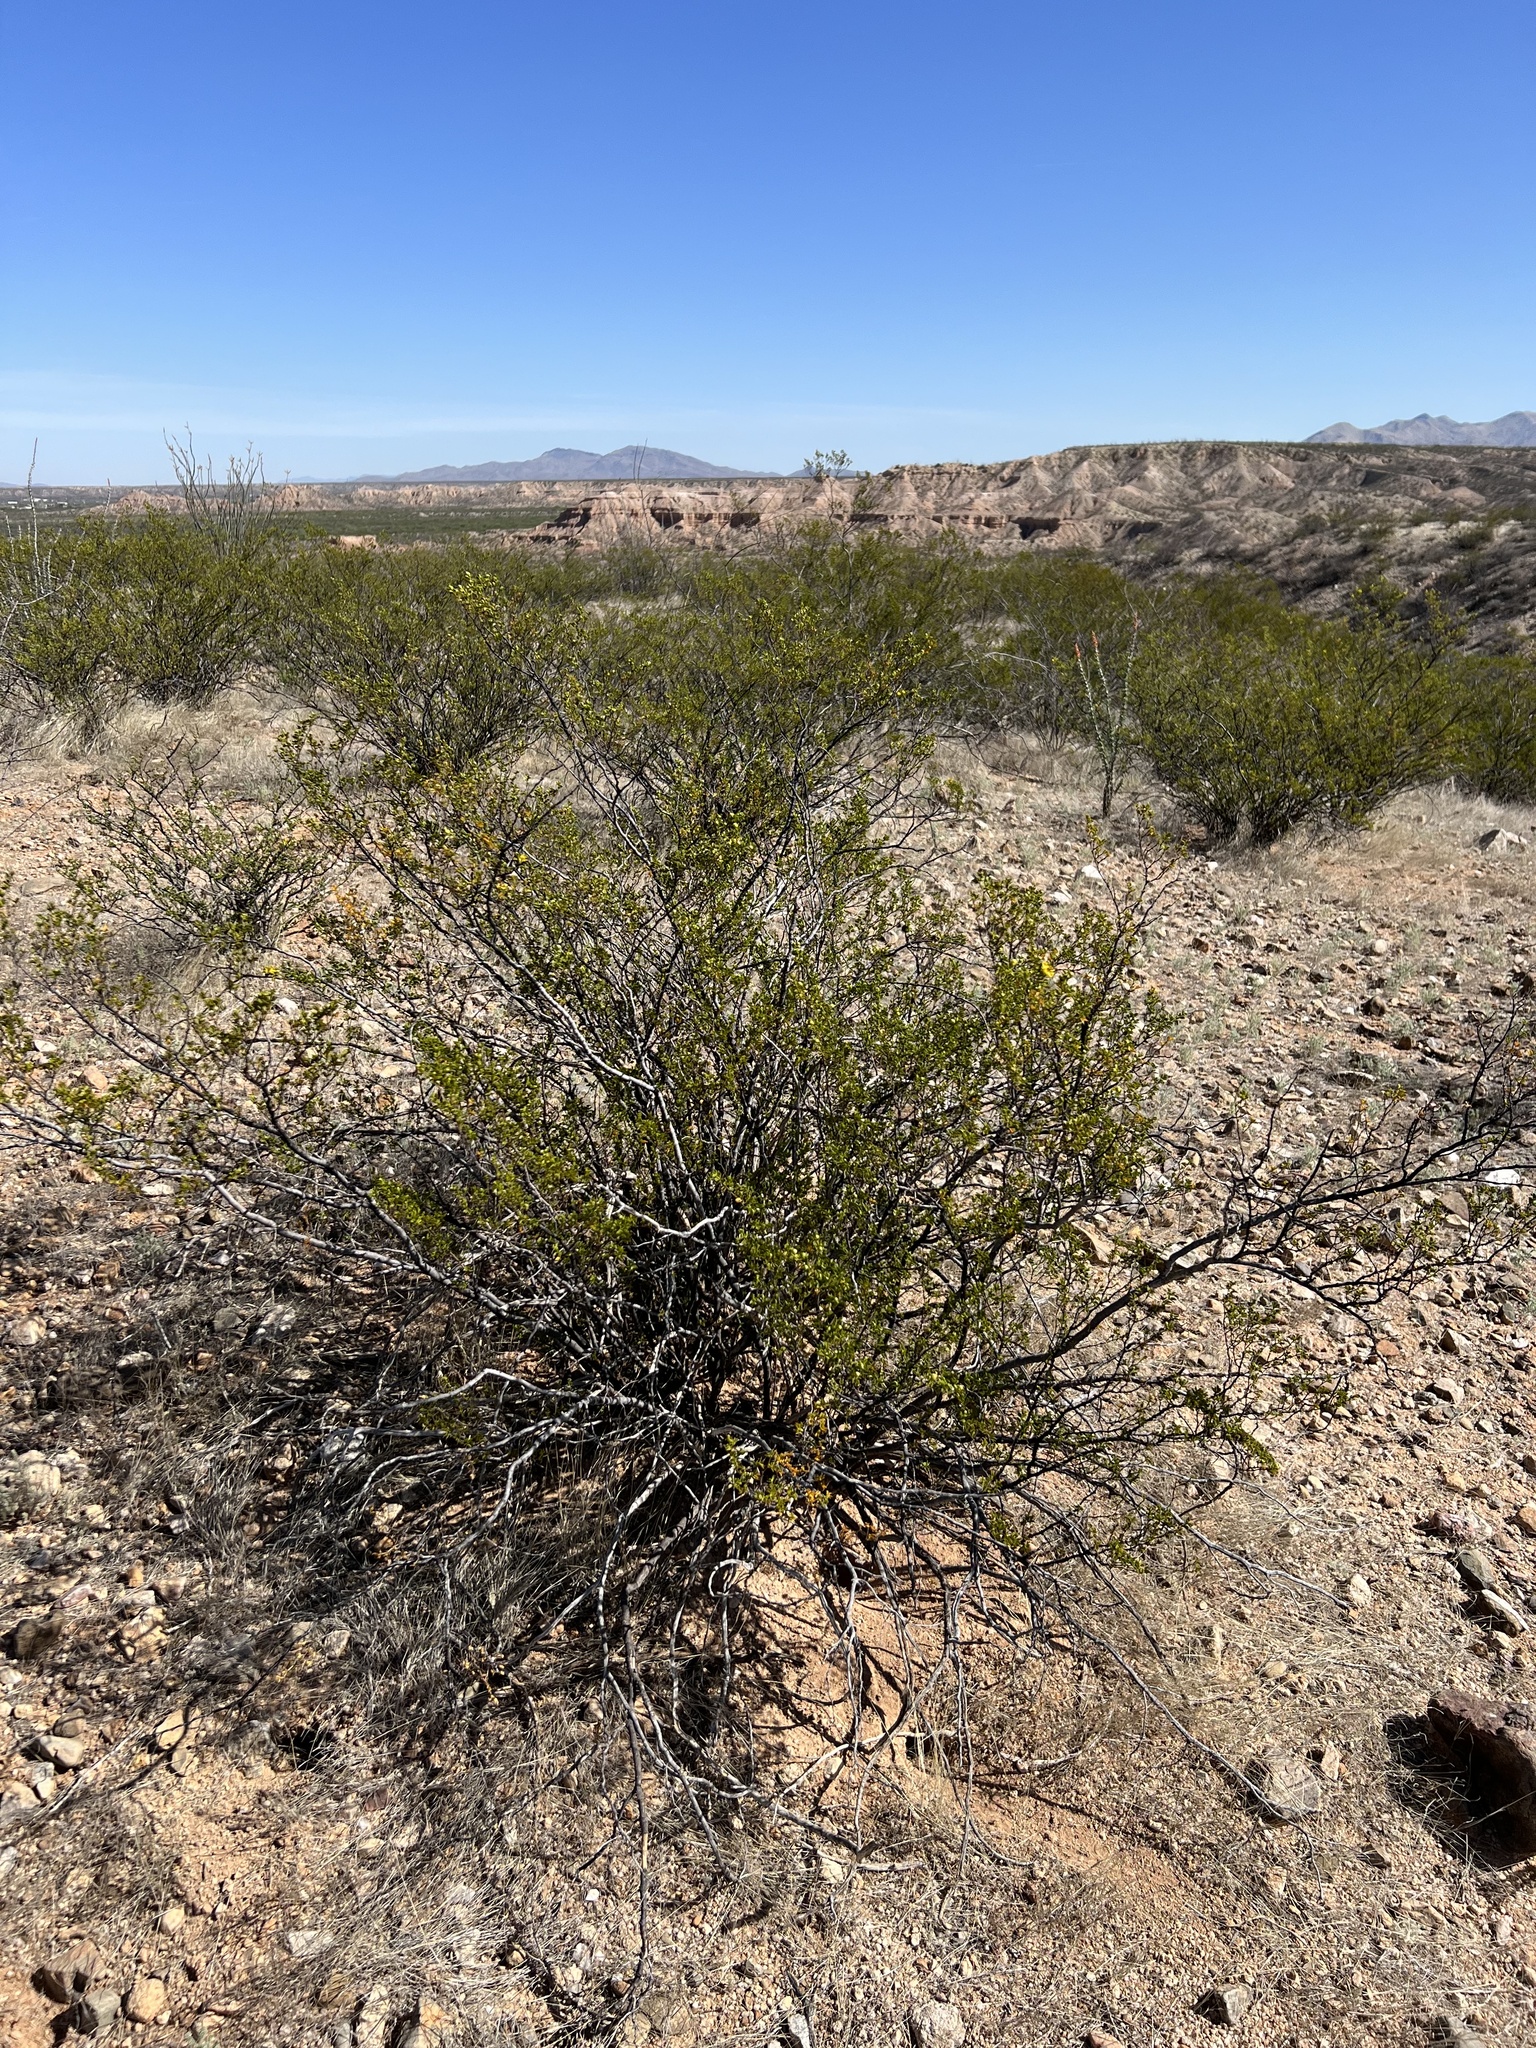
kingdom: Plantae
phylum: Tracheophyta
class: Magnoliopsida
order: Zygophyllales
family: Zygophyllaceae
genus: Larrea
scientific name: Larrea tridentata
